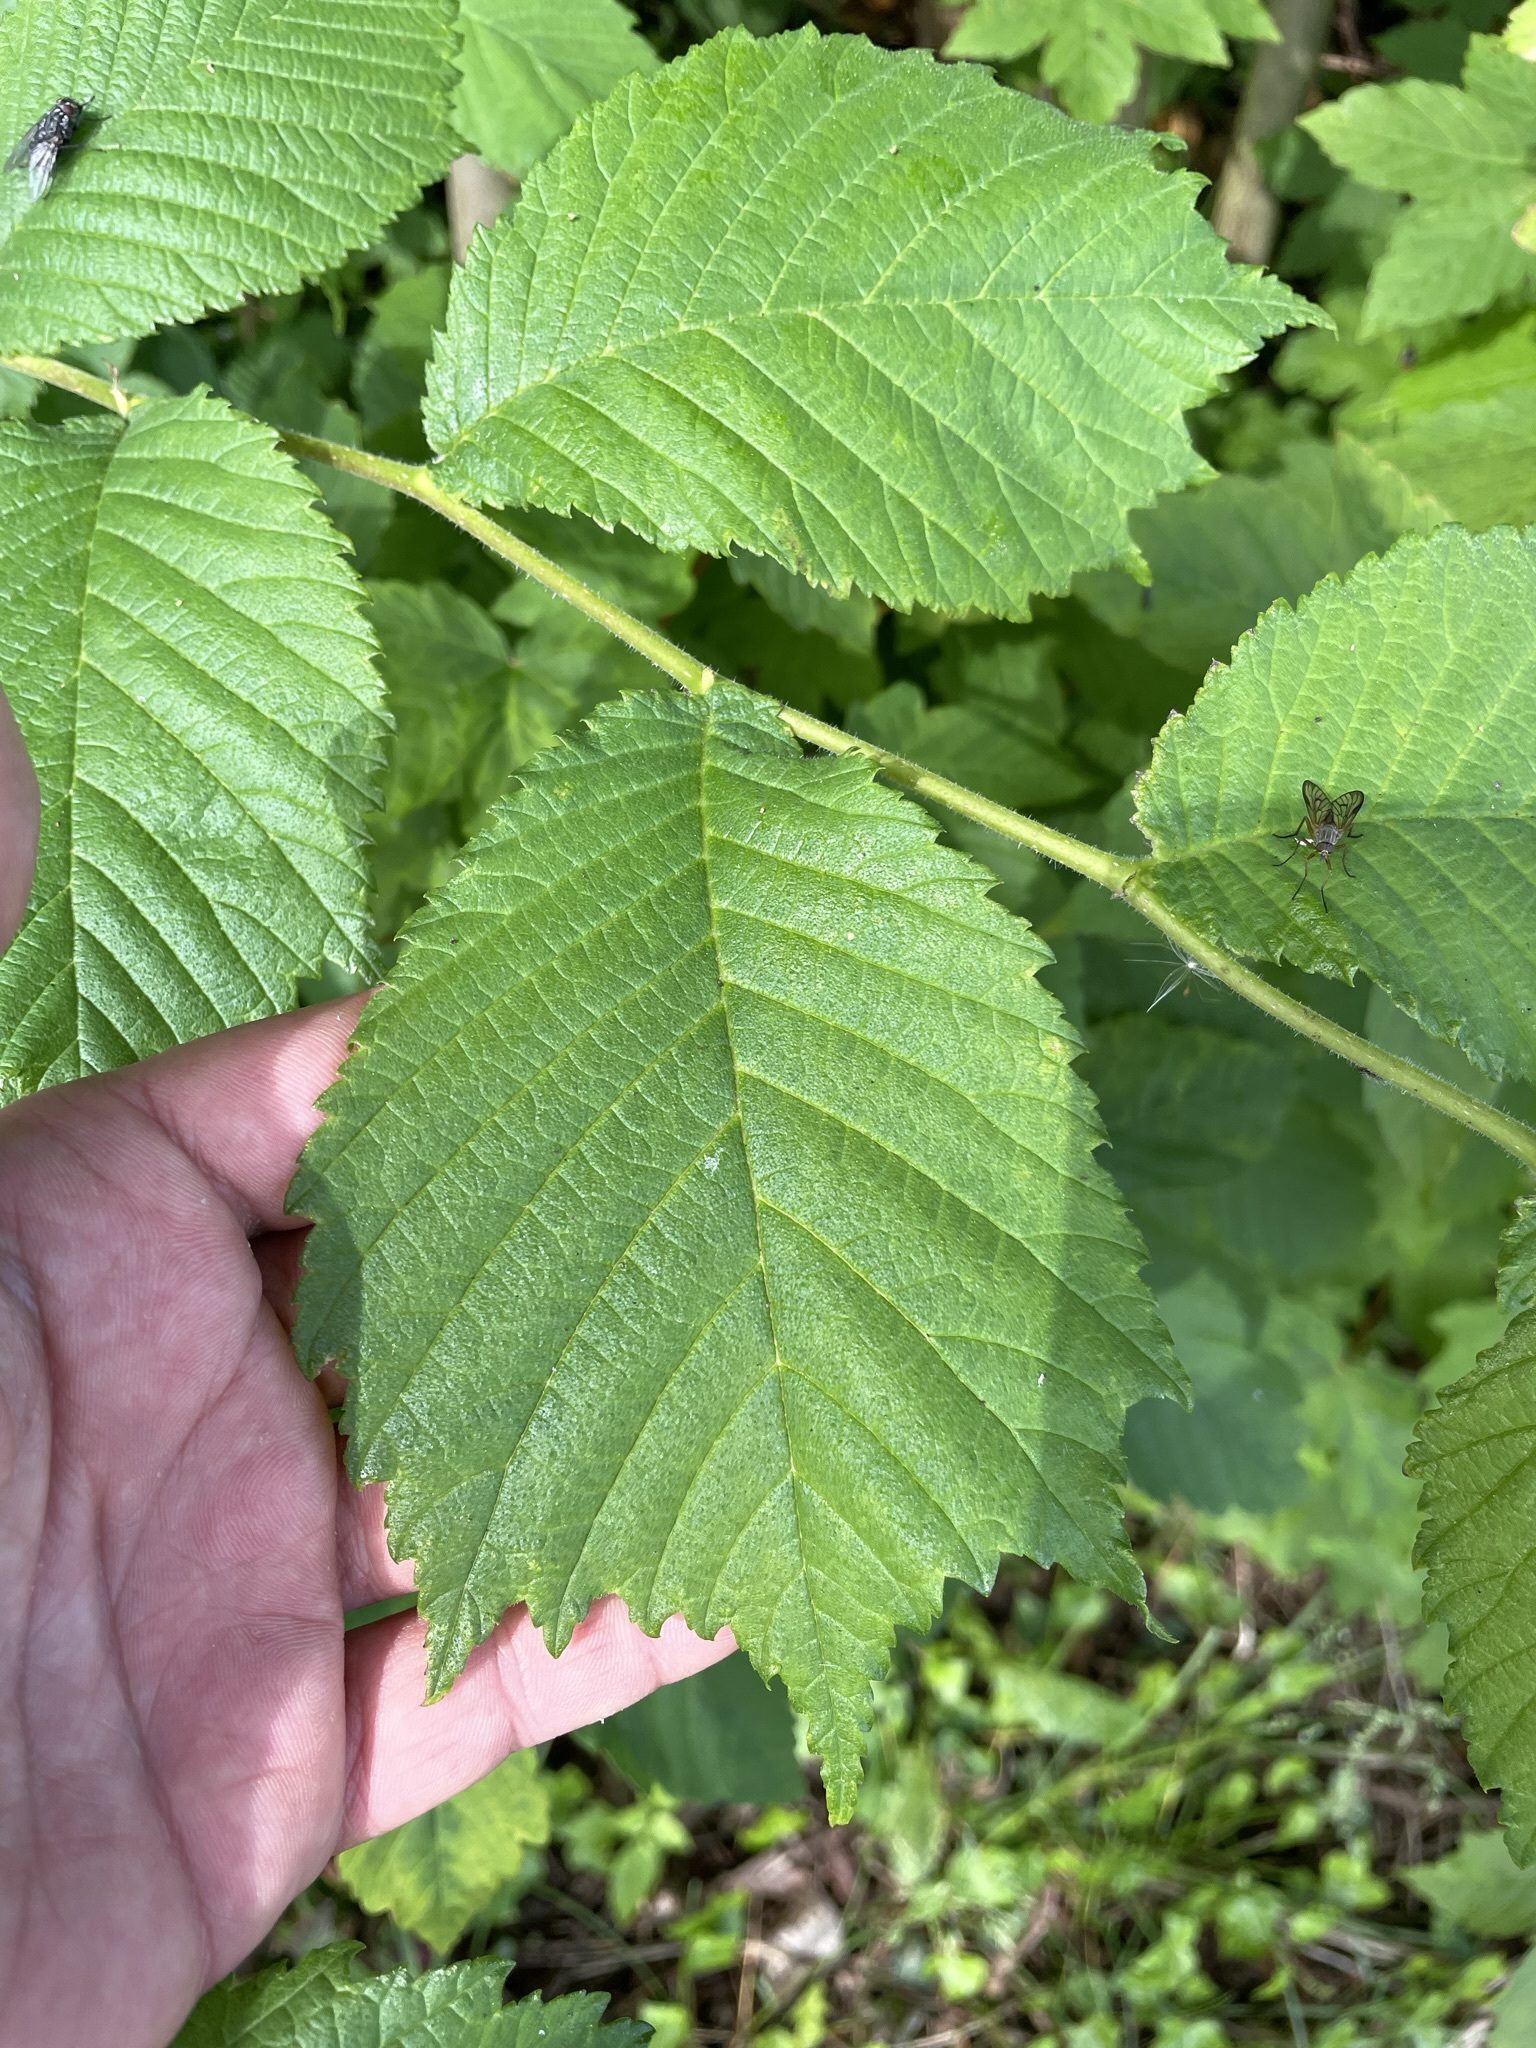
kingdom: Plantae
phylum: Tracheophyta
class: Magnoliopsida
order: Rosales
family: Ulmaceae
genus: Ulmus
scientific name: Ulmus glabra
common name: Wych elm
